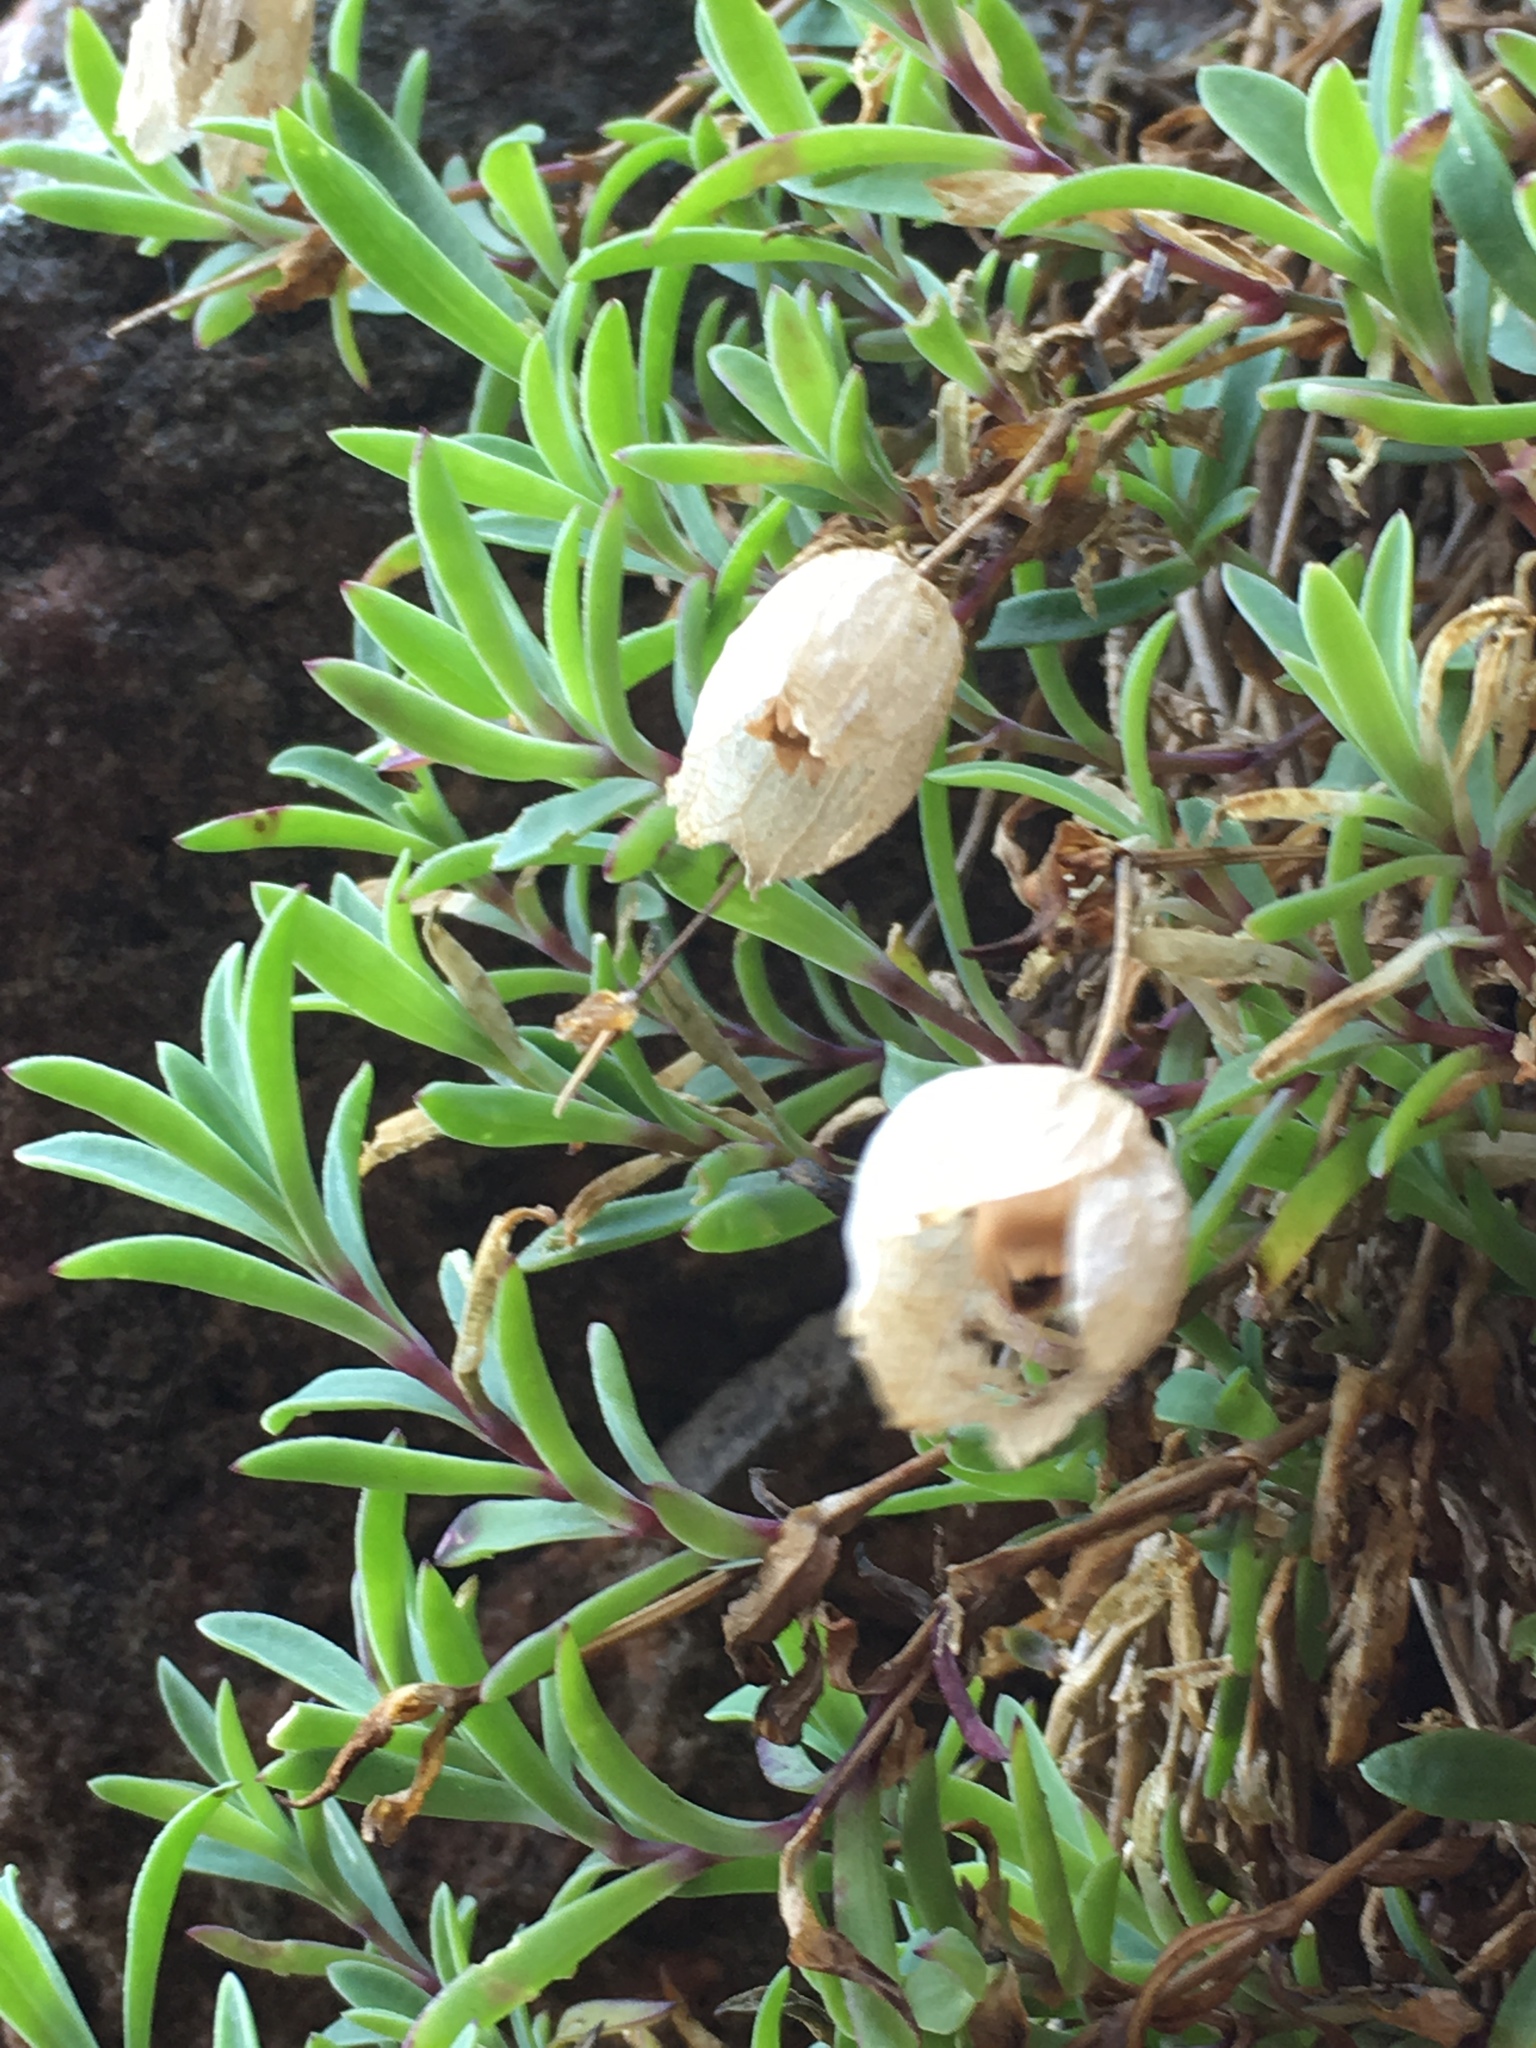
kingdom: Plantae
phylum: Tracheophyta
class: Magnoliopsida
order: Caryophyllales
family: Caryophyllaceae
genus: Silene
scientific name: Silene uniflora
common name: Sea campion
